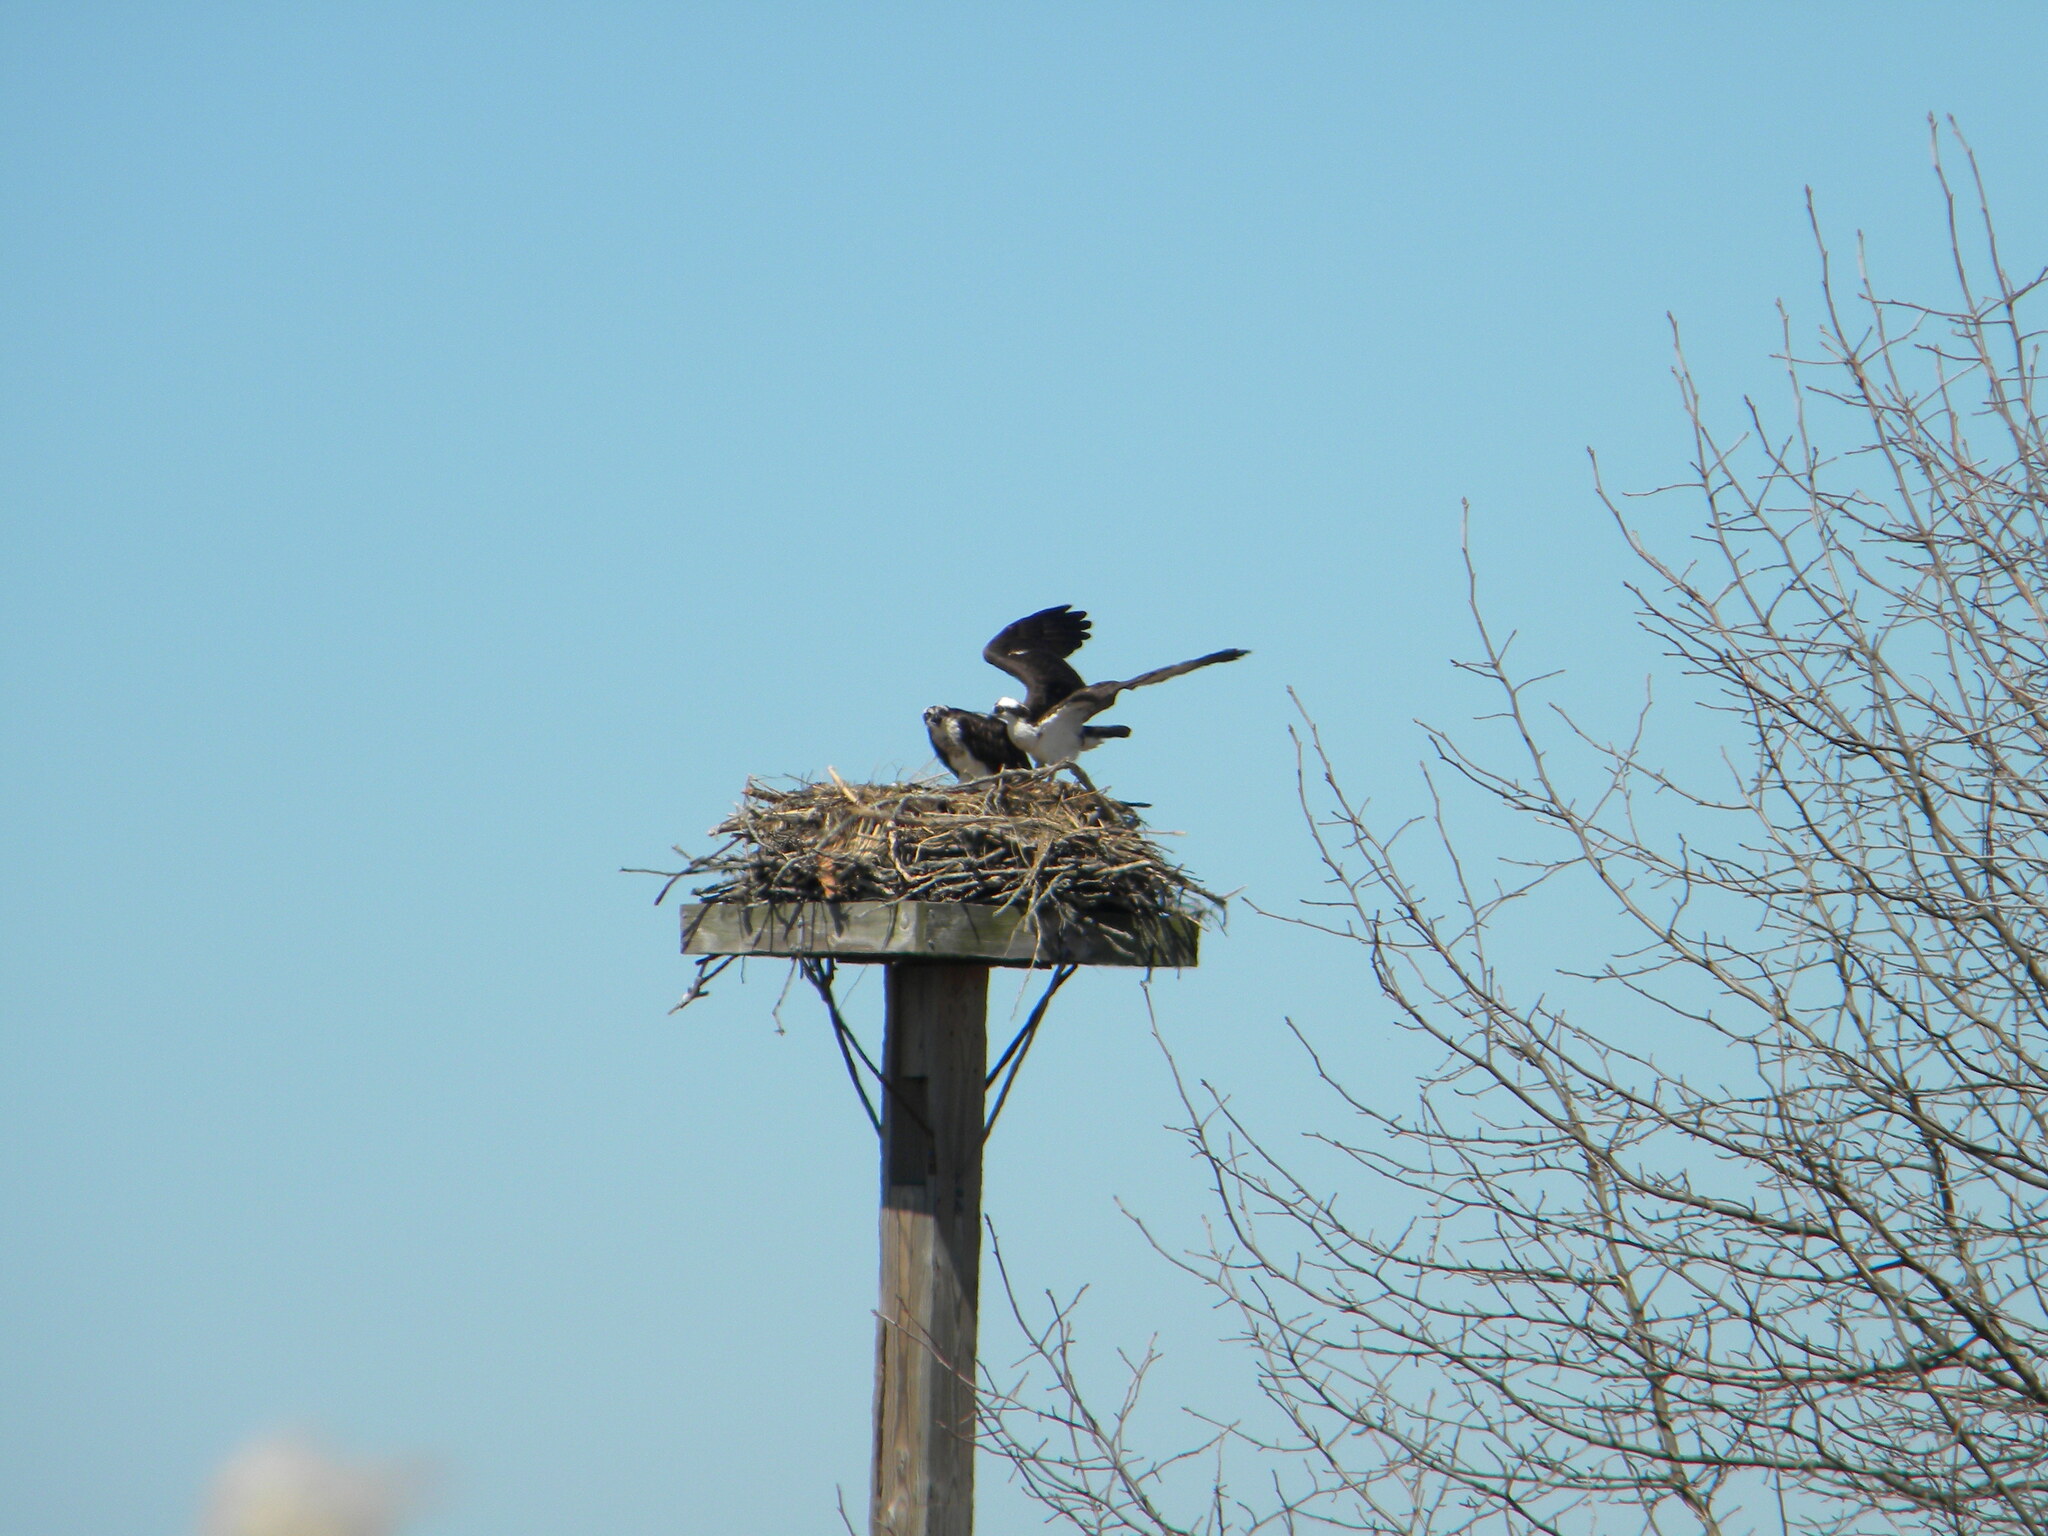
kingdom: Animalia
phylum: Chordata
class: Aves
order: Accipitriformes
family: Pandionidae
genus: Pandion
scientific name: Pandion haliaetus
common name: Osprey
